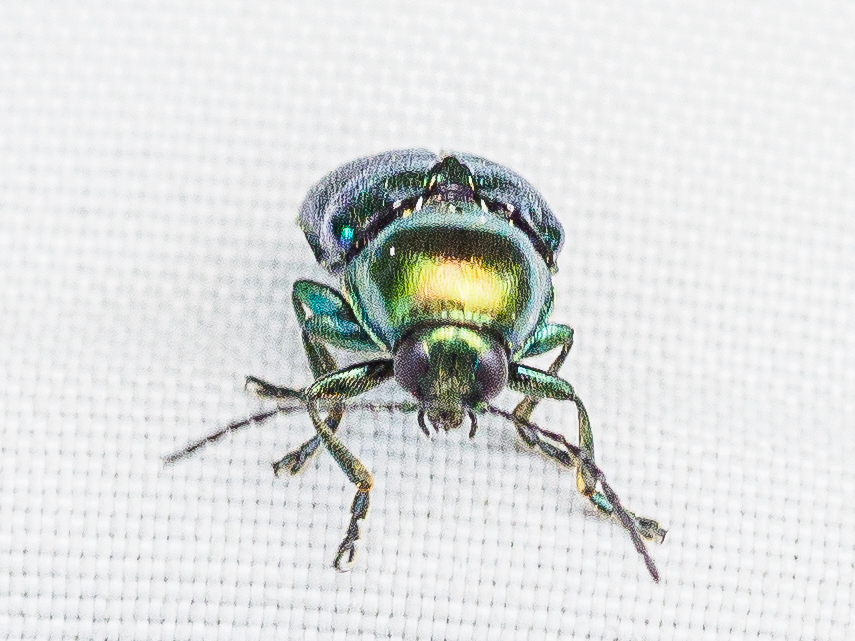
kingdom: Animalia
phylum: Arthropoda
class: Insecta
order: Coleoptera
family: Chrysomelidae
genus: Cryptocephalus
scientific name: Cryptocephalus
